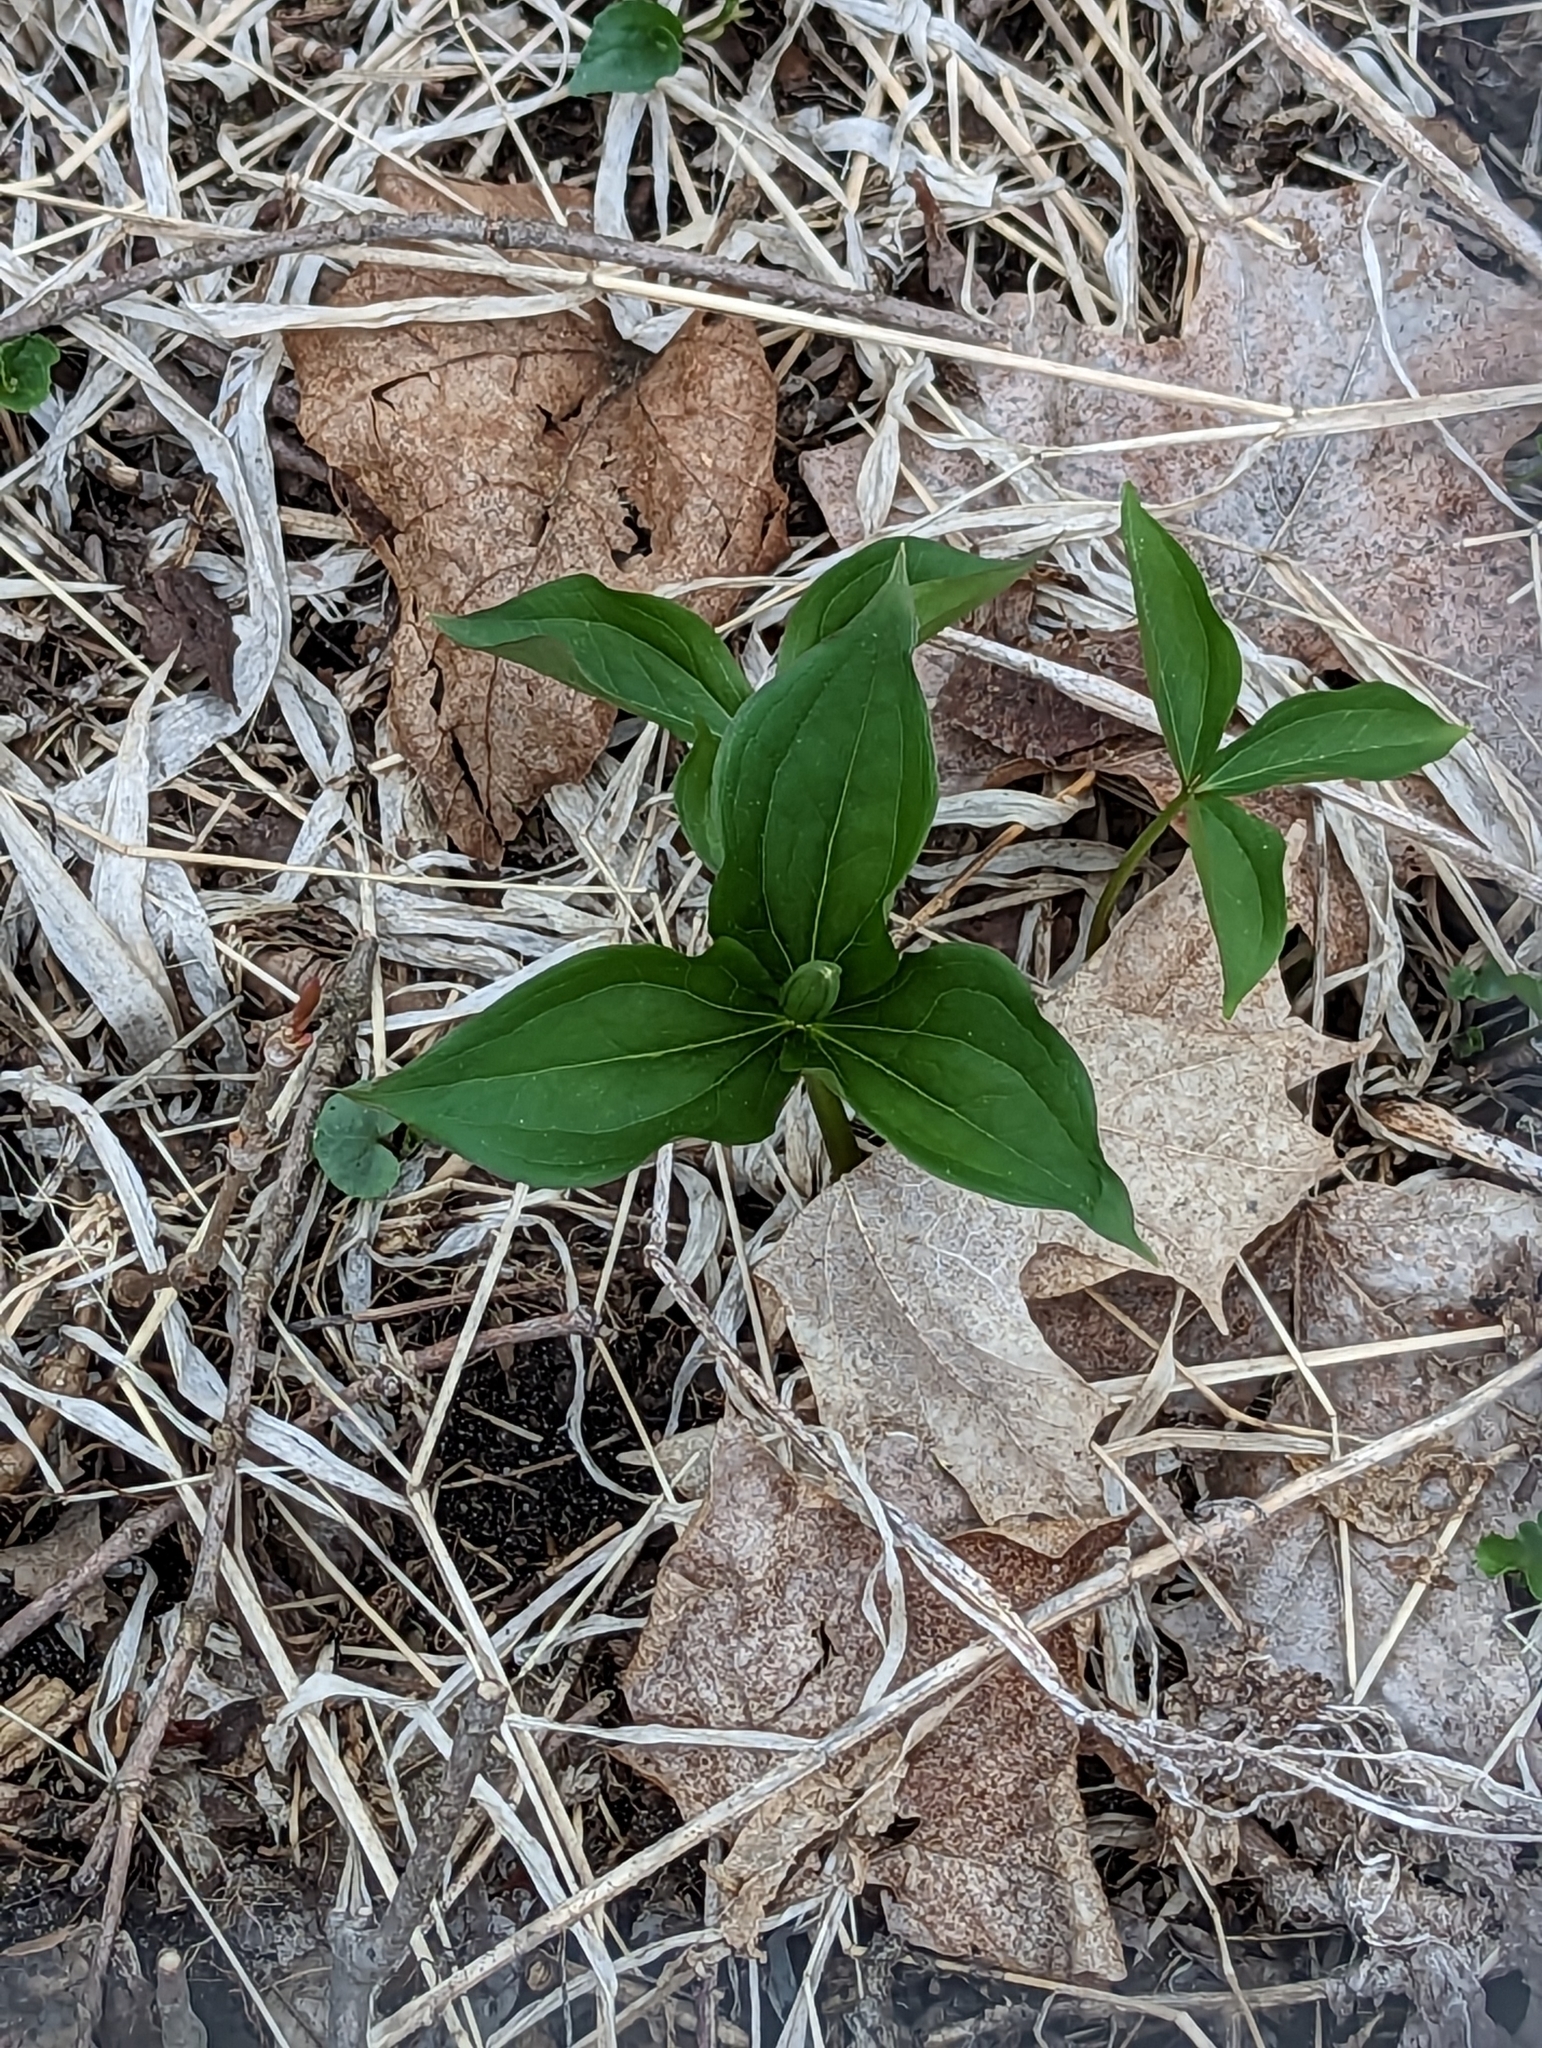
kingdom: Plantae
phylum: Tracheophyta
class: Liliopsida
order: Liliales
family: Melanthiaceae
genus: Trillium
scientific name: Trillium grandiflorum
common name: Great white trillium
